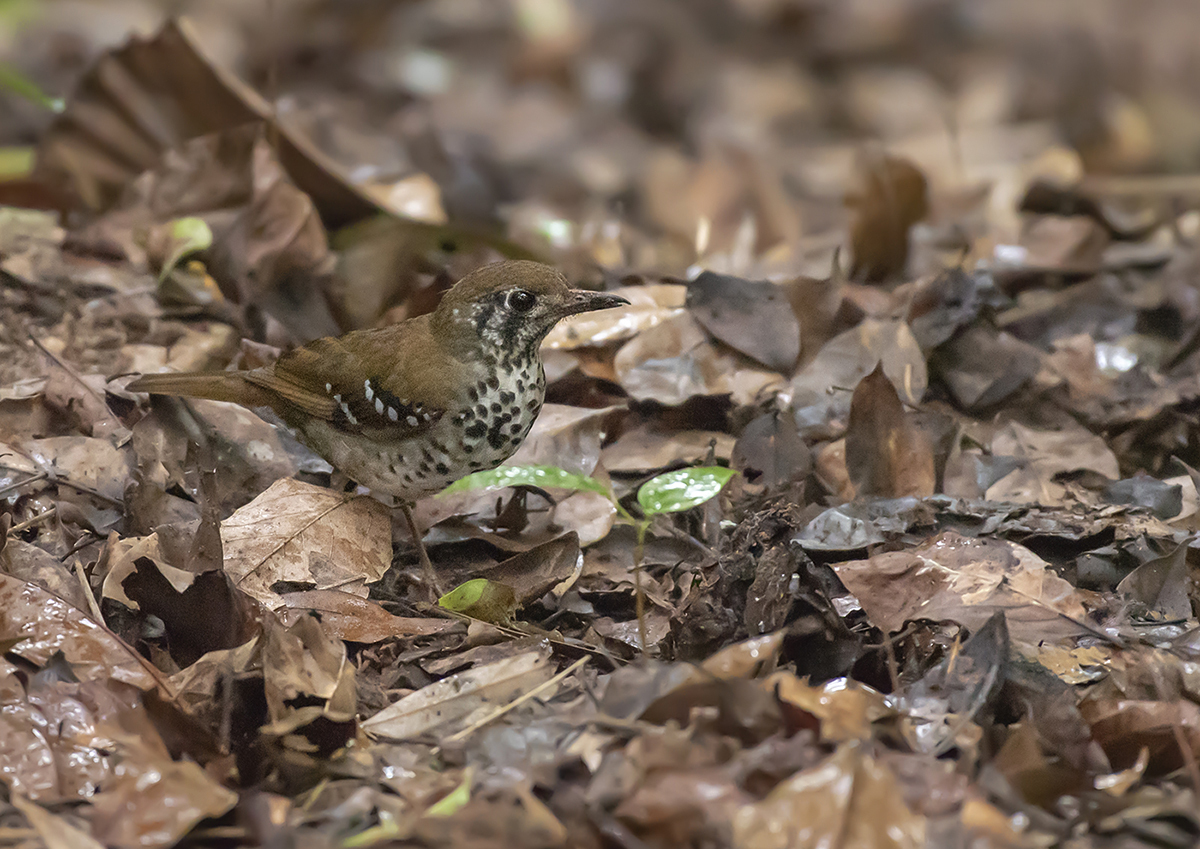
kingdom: Animalia
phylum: Chordata
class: Aves
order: Passeriformes
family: Turdidae
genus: Geokichla
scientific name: Geokichla spiloptera
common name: Spot-winged thrush
